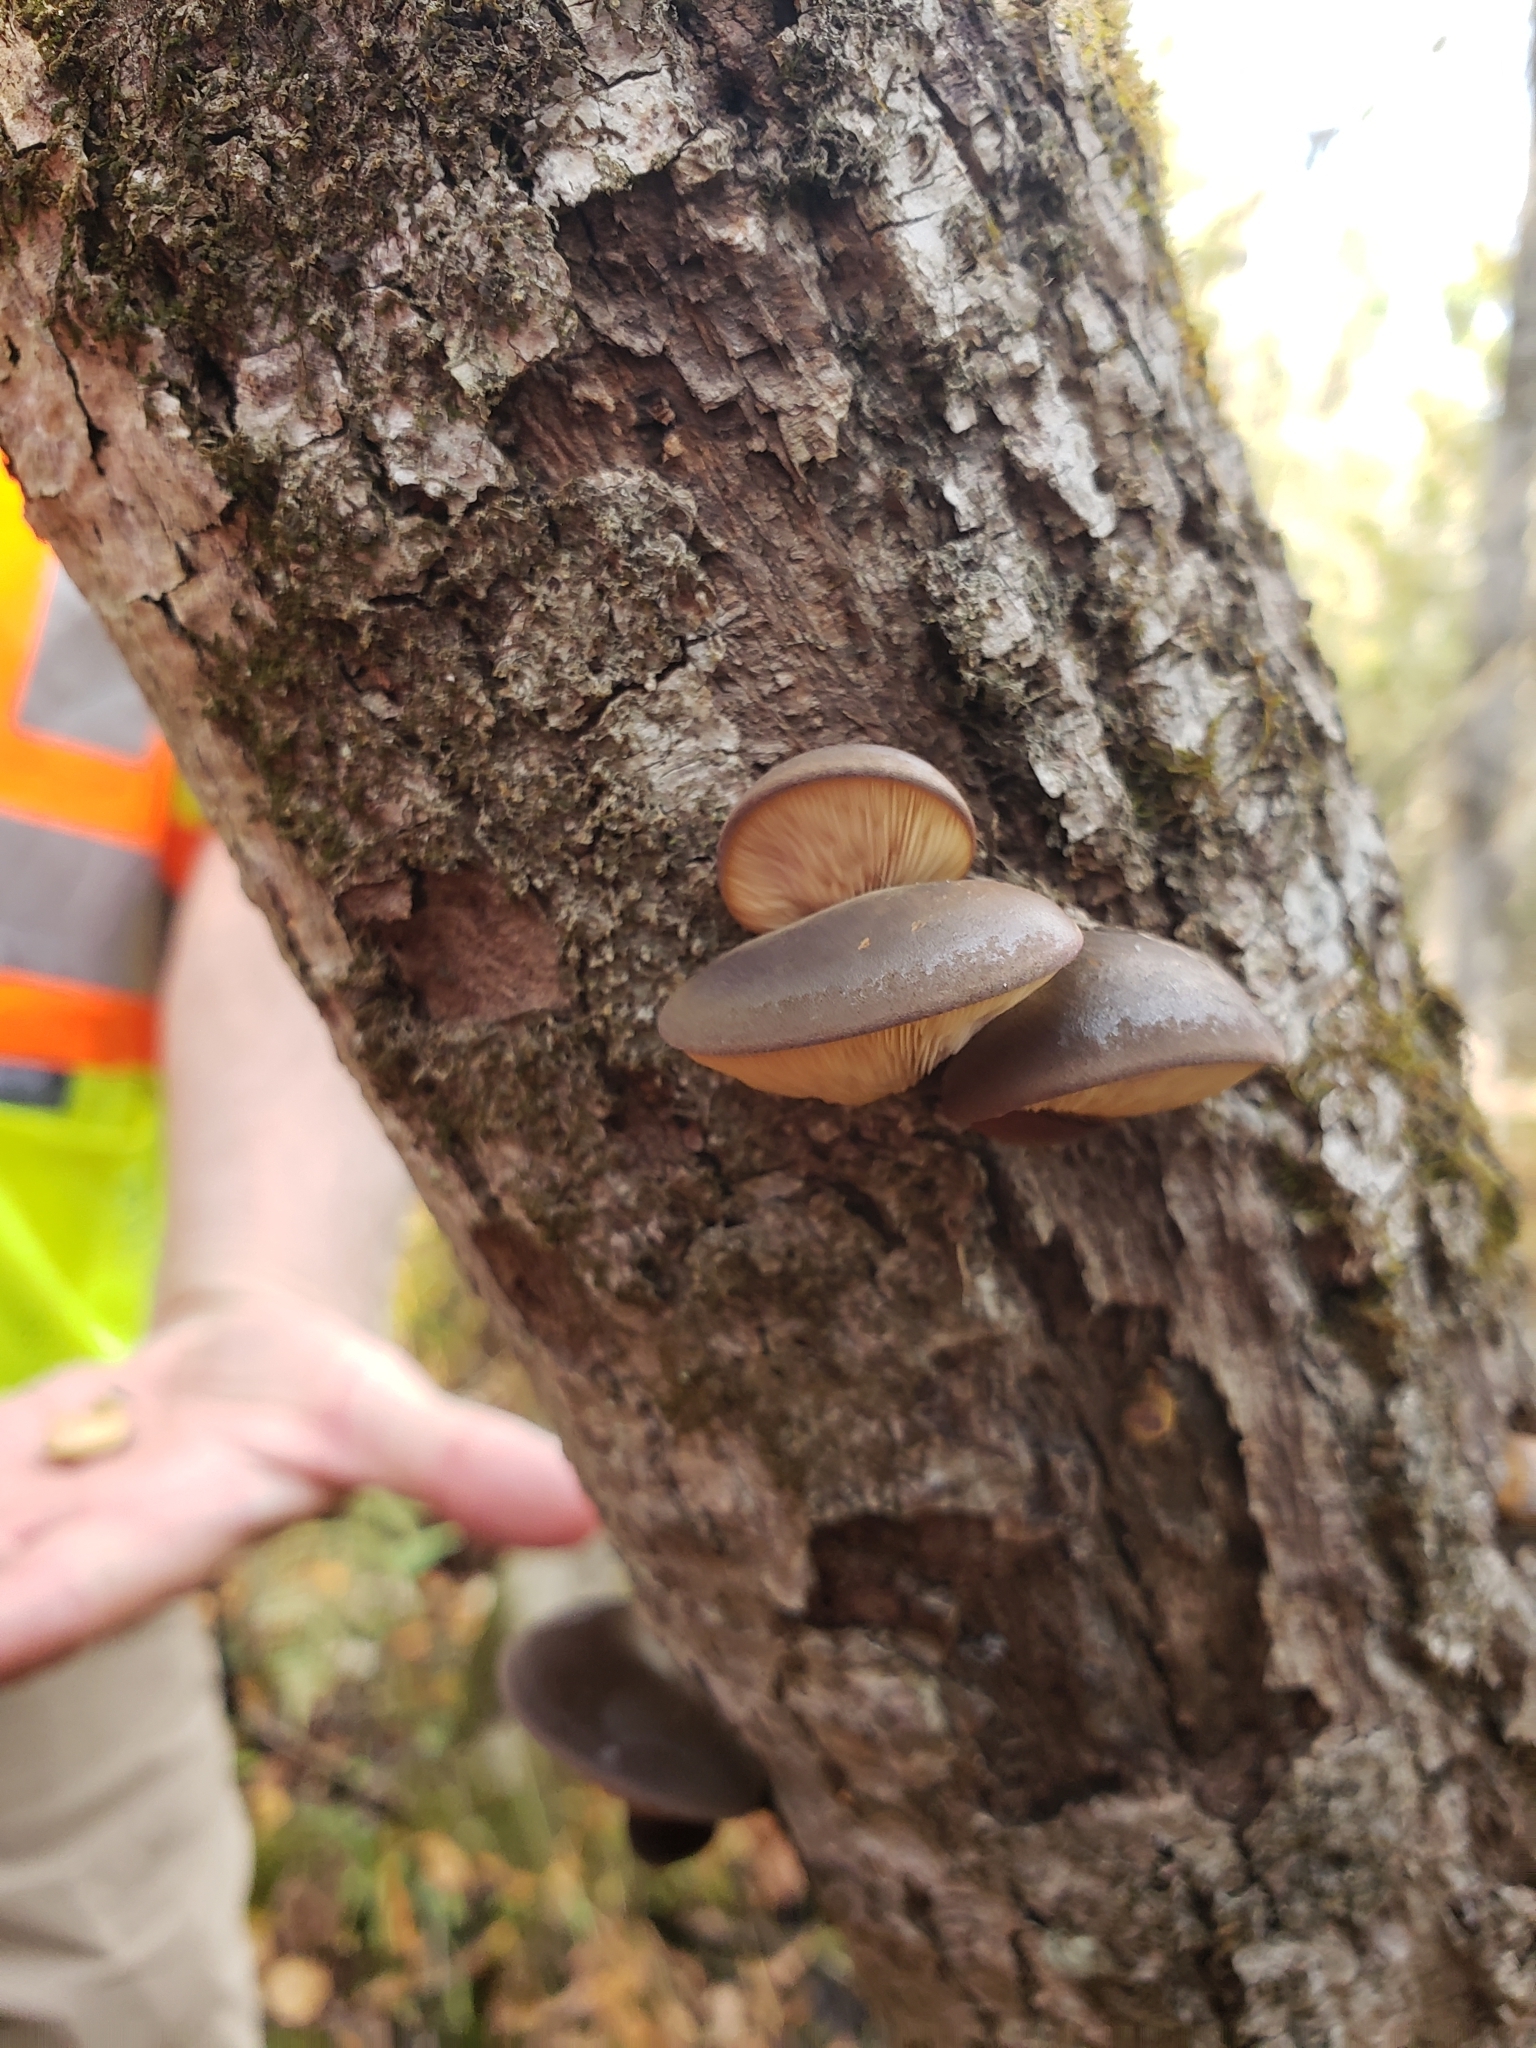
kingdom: Fungi
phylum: Basidiomycota
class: Agaricomycetes
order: Agaricales
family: Sarcomyxaceae
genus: Sarcomyxa
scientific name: Sarcomyxa serotina
